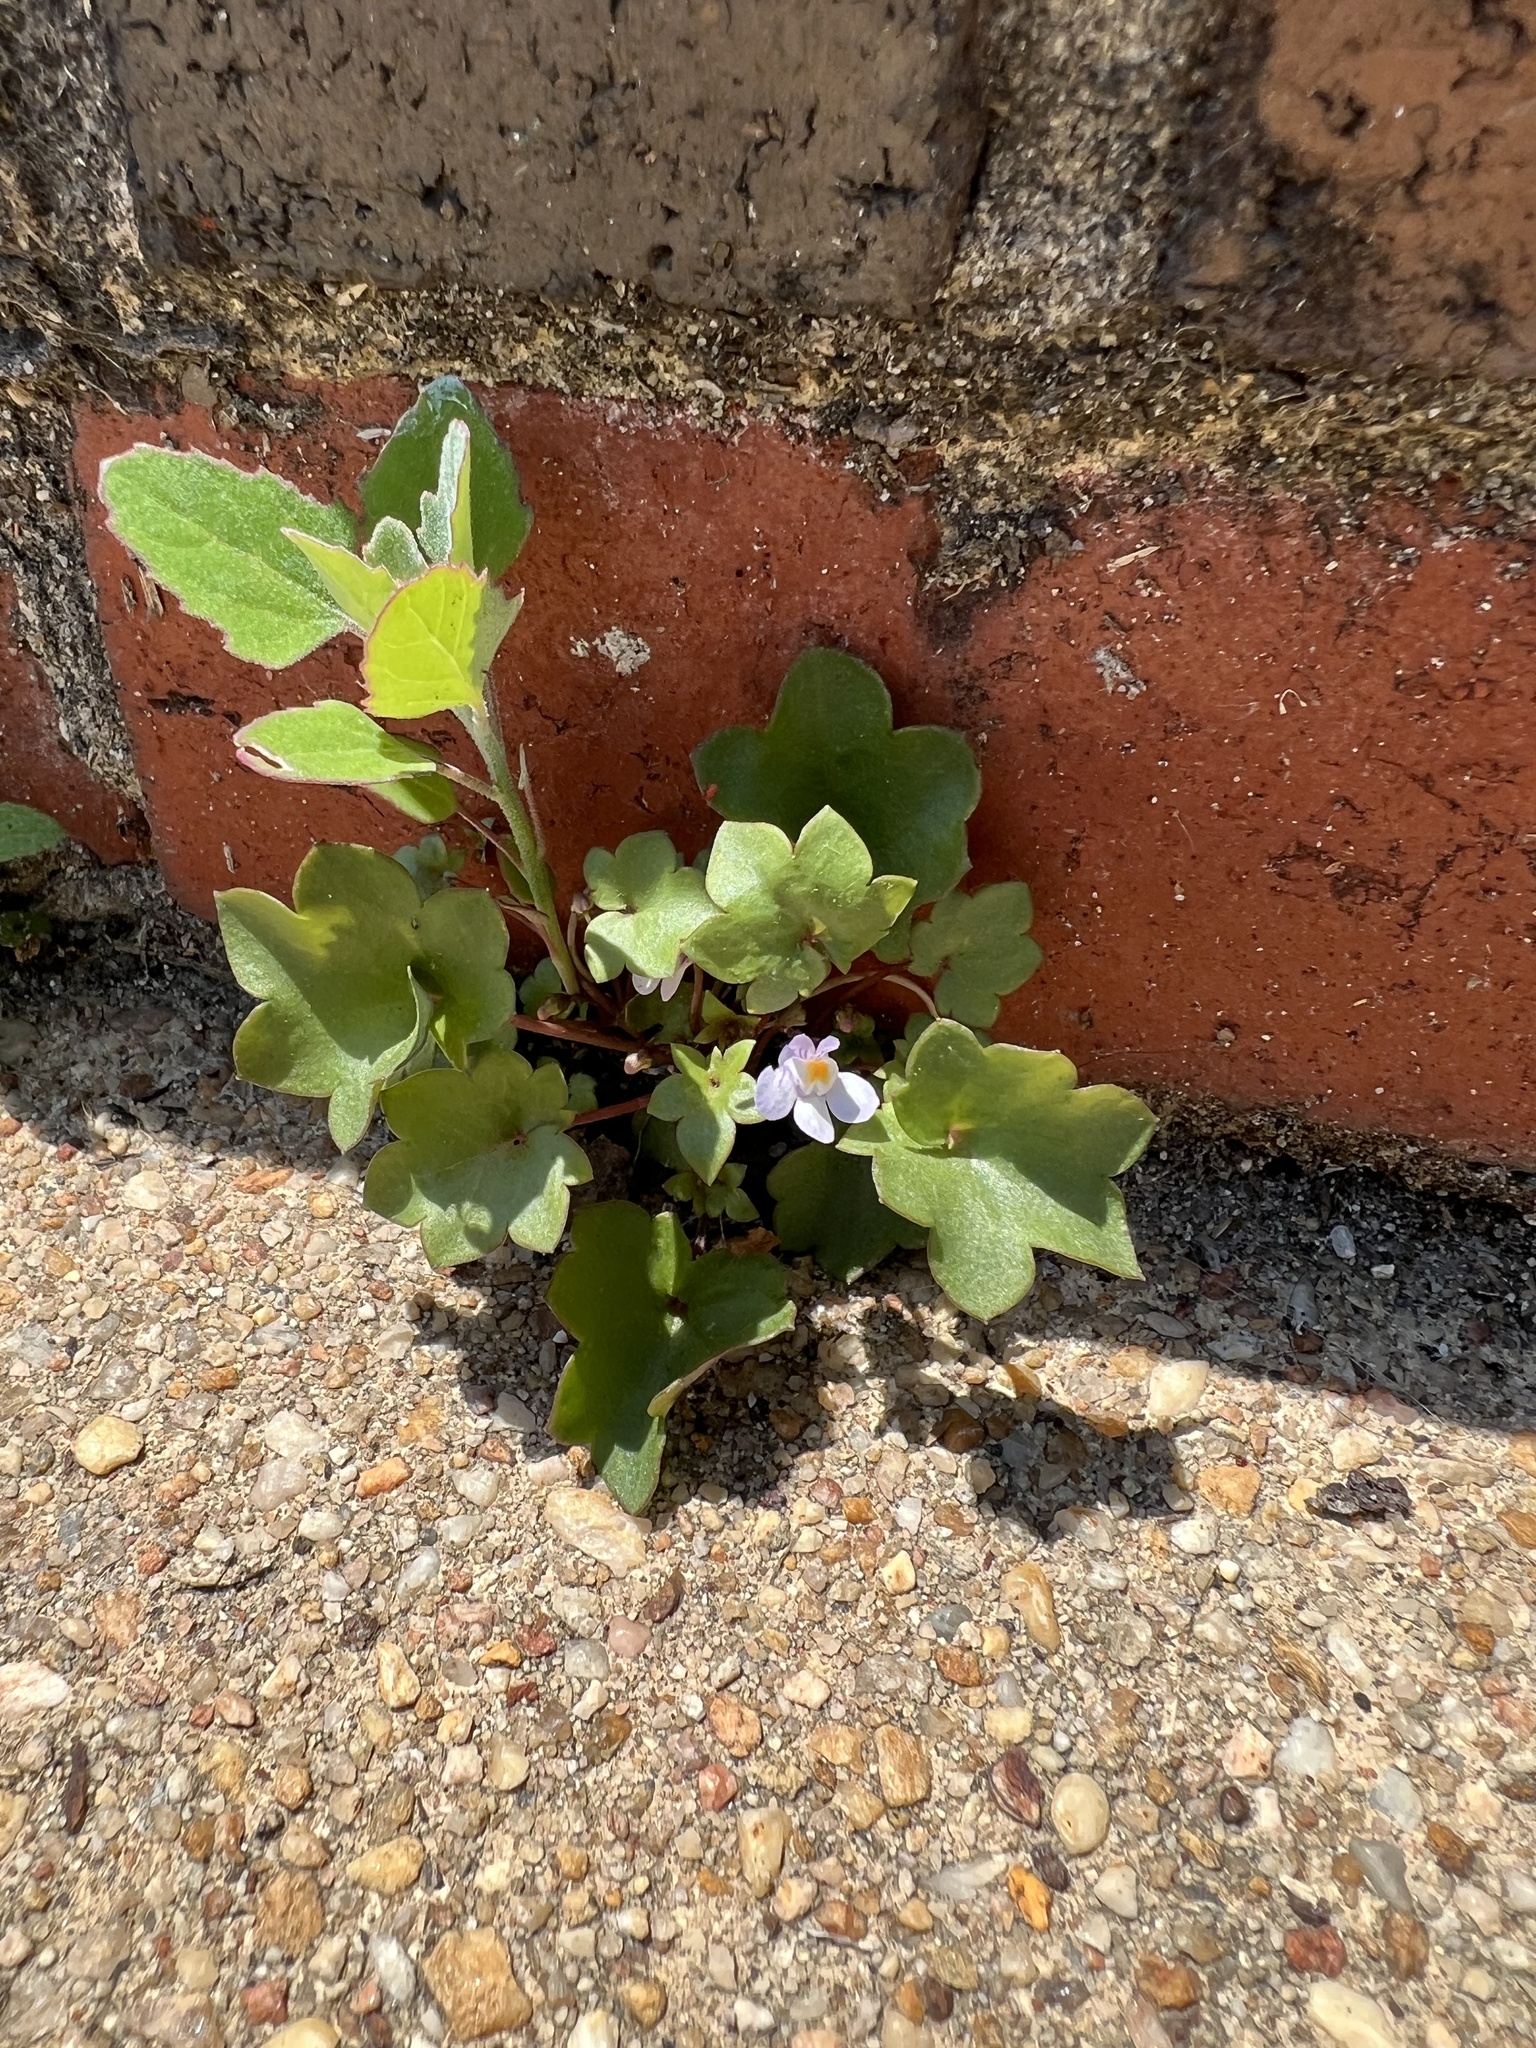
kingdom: Plantae
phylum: Tracheophyta
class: Magnoliopsida
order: Lamiales
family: Plantaginaceae
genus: Cymbalaria
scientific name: Cymbalaria muralis
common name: Ivy-leaved toadflax
